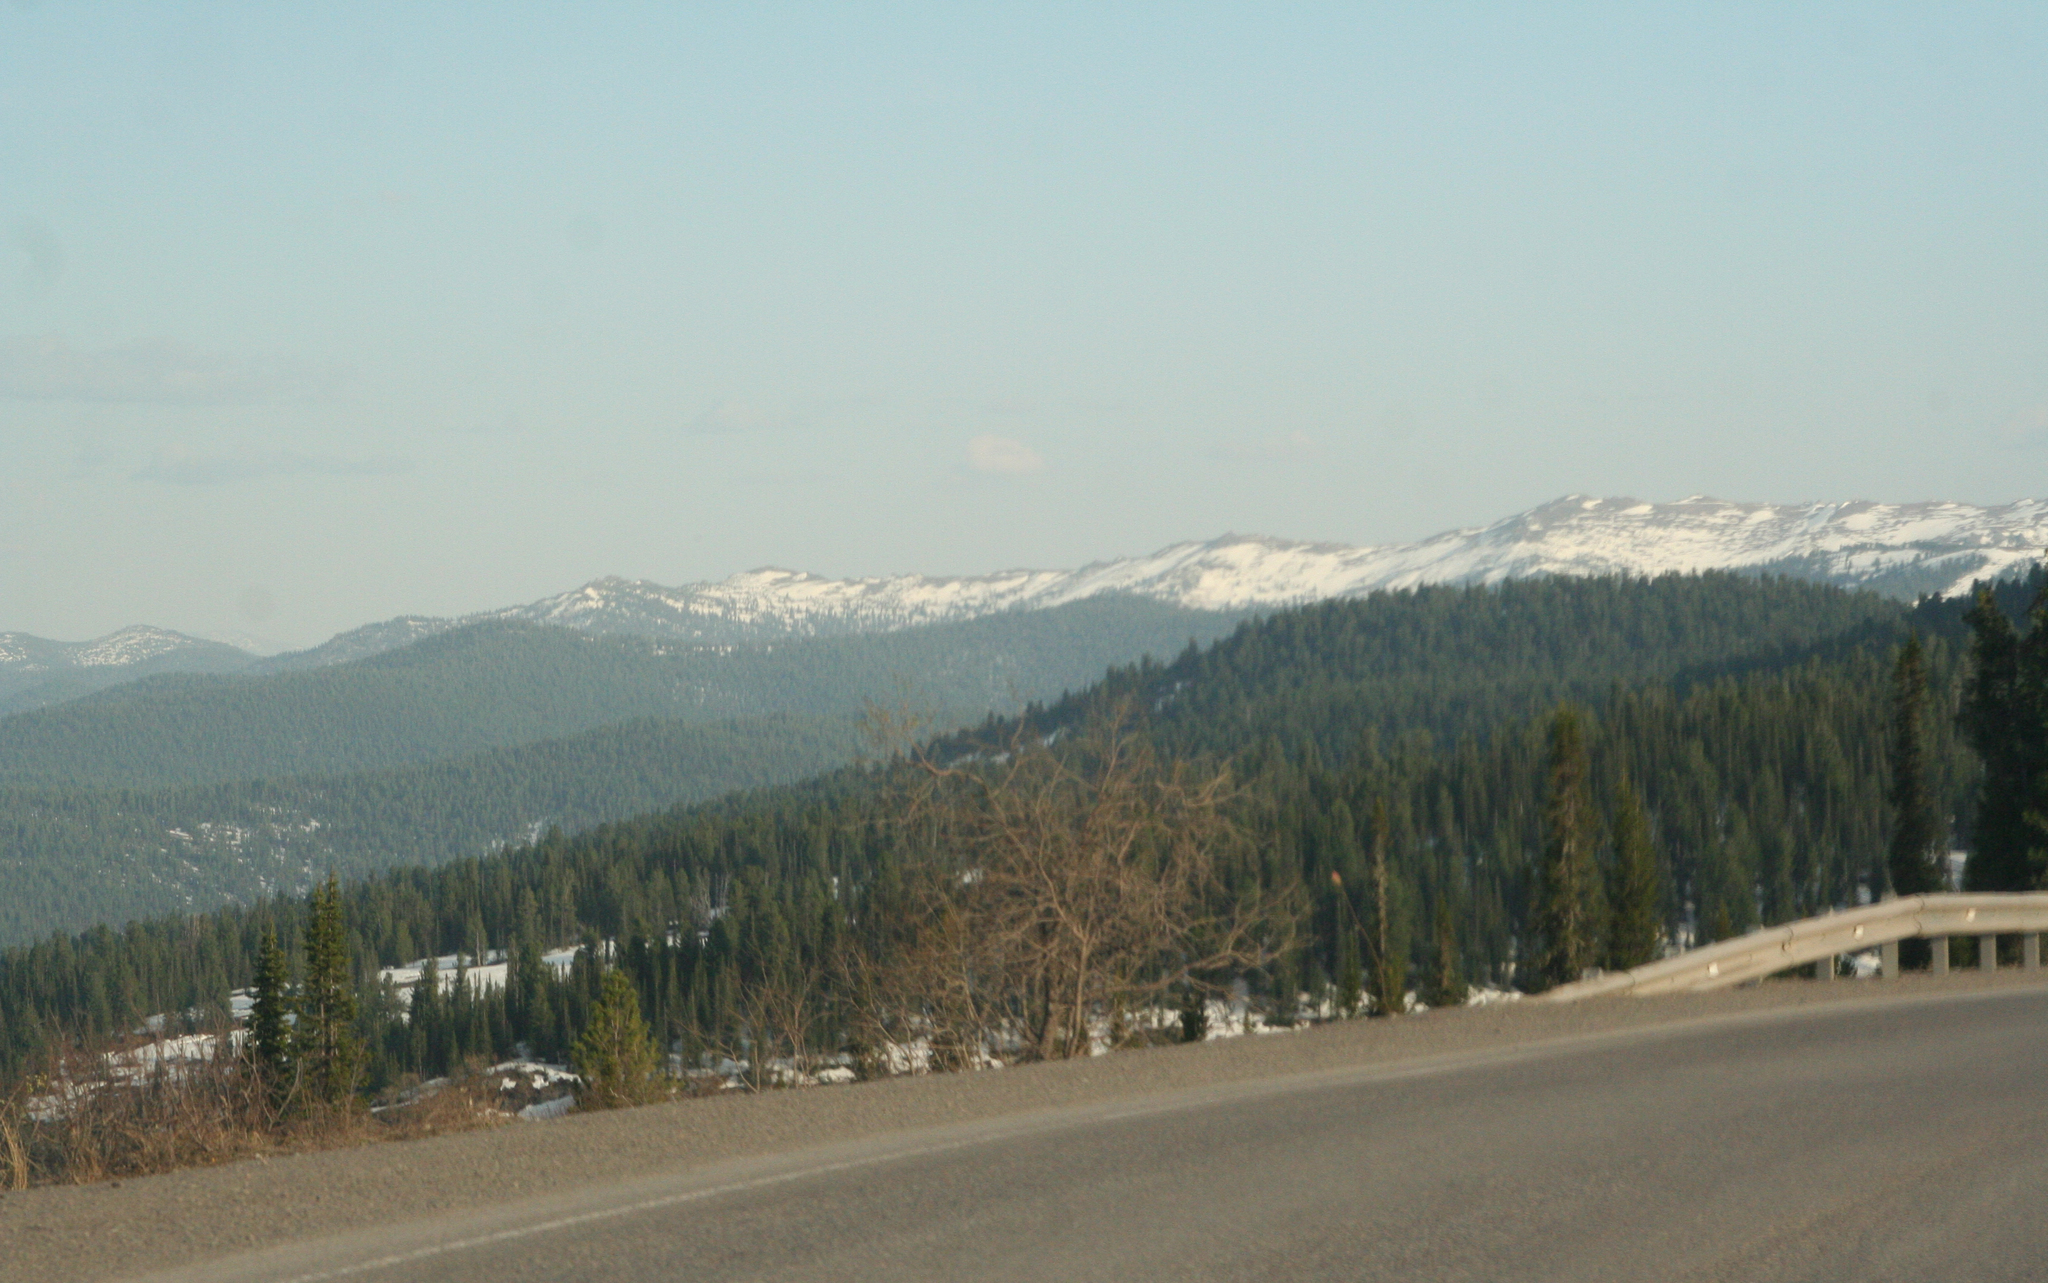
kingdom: Plantae
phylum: Tracheophyta
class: Pinopsida
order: Pinales
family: Pinaceae
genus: Abies
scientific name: Abies sibirica
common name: Siberian fir
